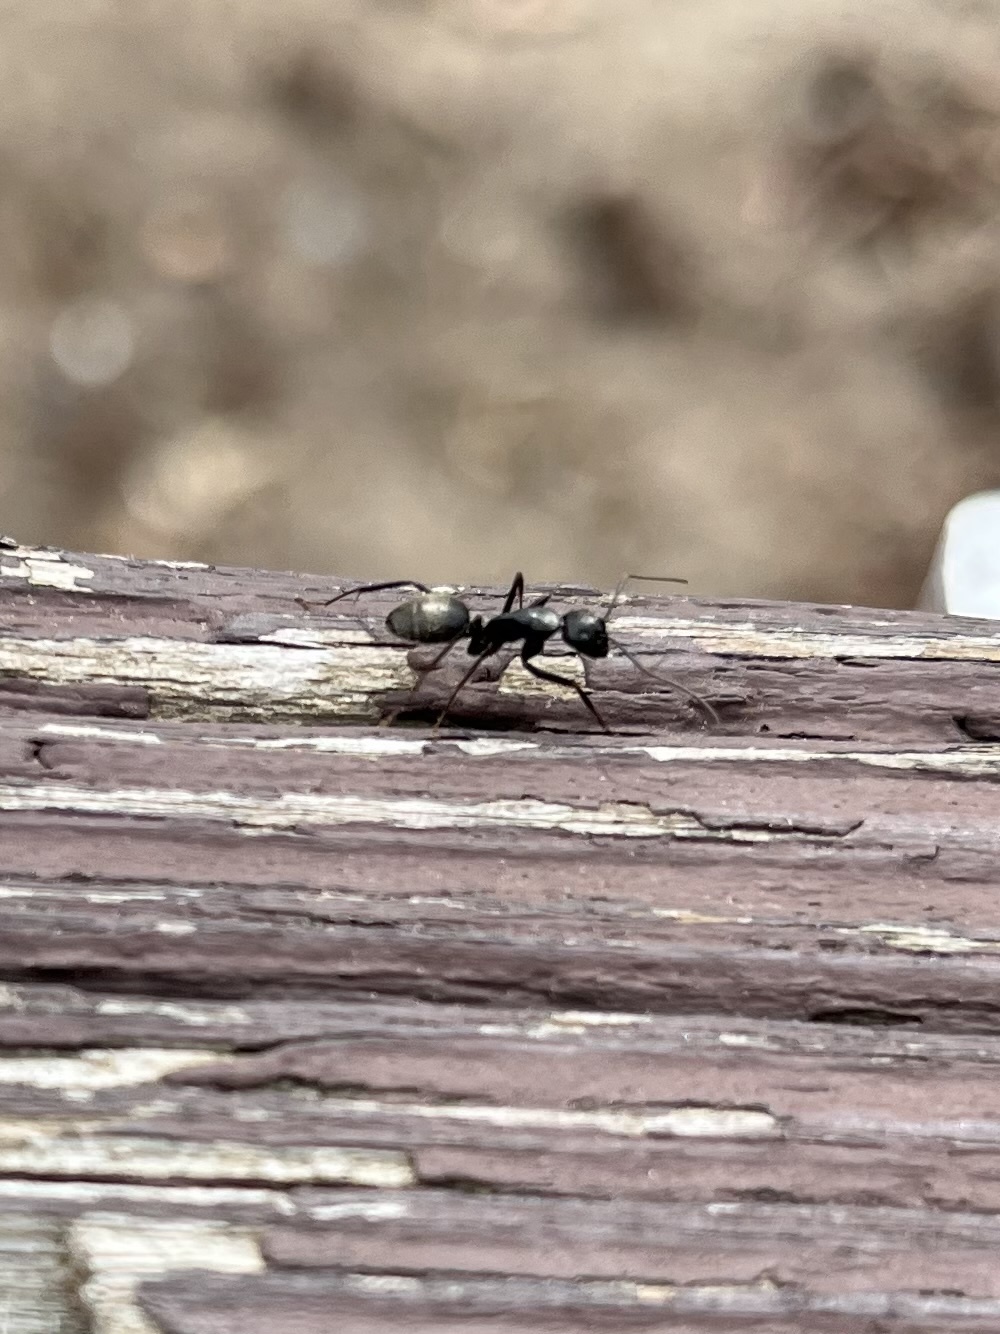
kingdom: Animalia
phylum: Arthropoda
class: Insecta
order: Hymenoptera
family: Formicidae
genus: Camponotus
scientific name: Camponotus pennsylvanicus
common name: Black carpenter ant
